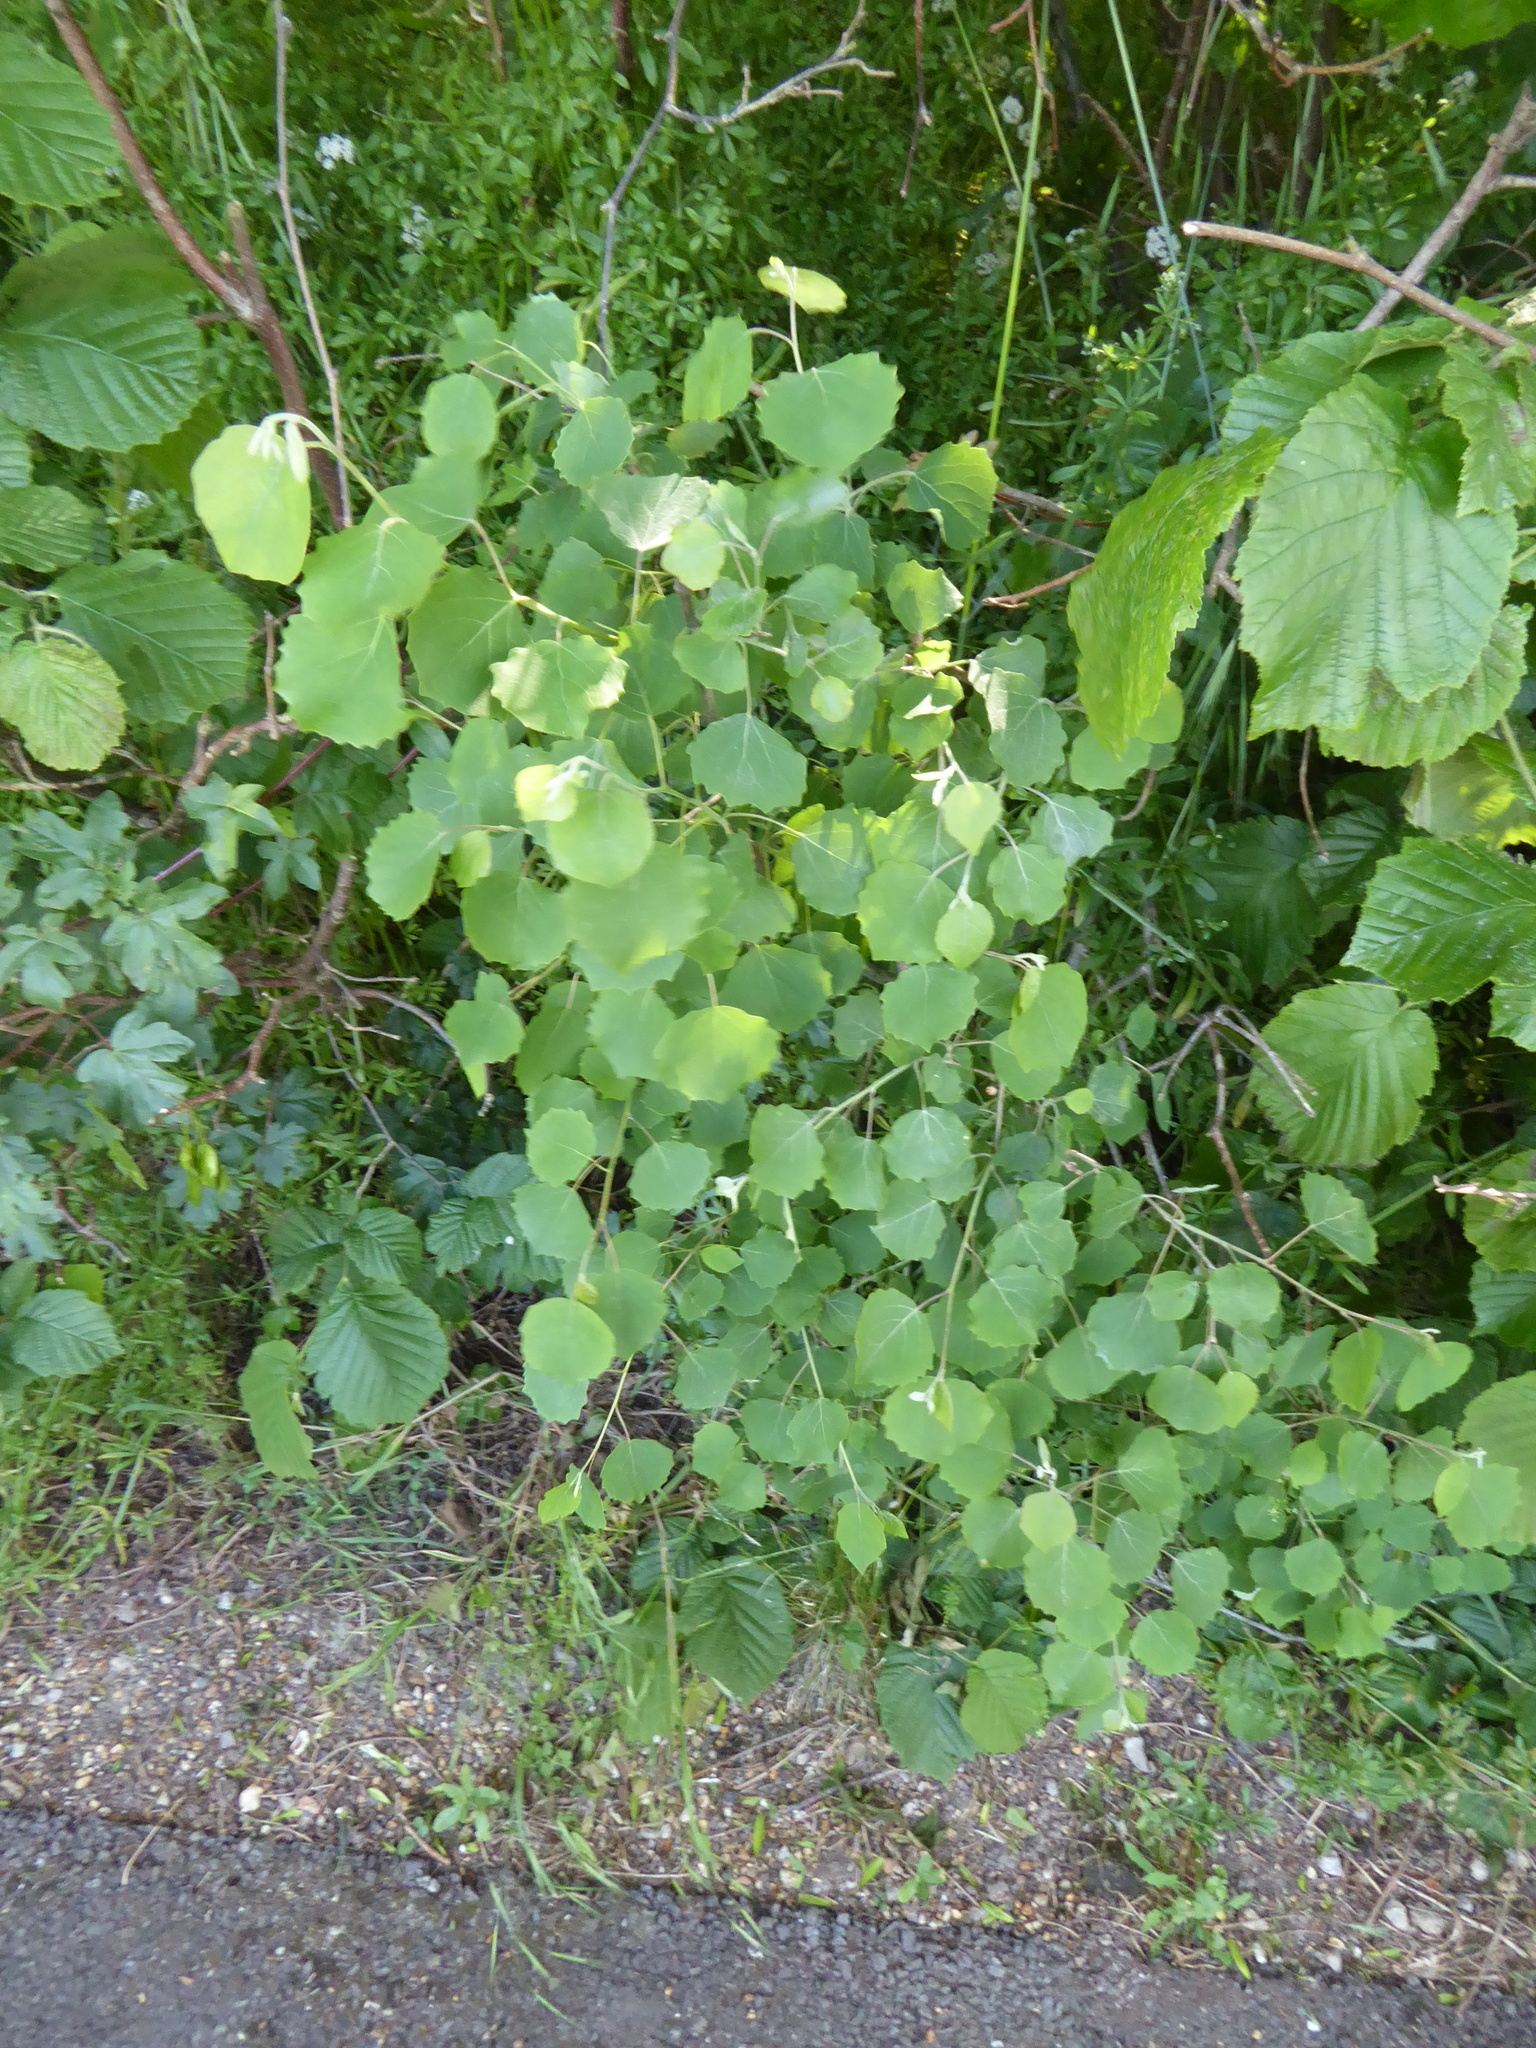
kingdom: Plantae
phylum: Tracheophyta
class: Magnoliopsida
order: Malpighiales
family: Salicaceae
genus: Populus
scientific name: Populus tremula
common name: European aspen
